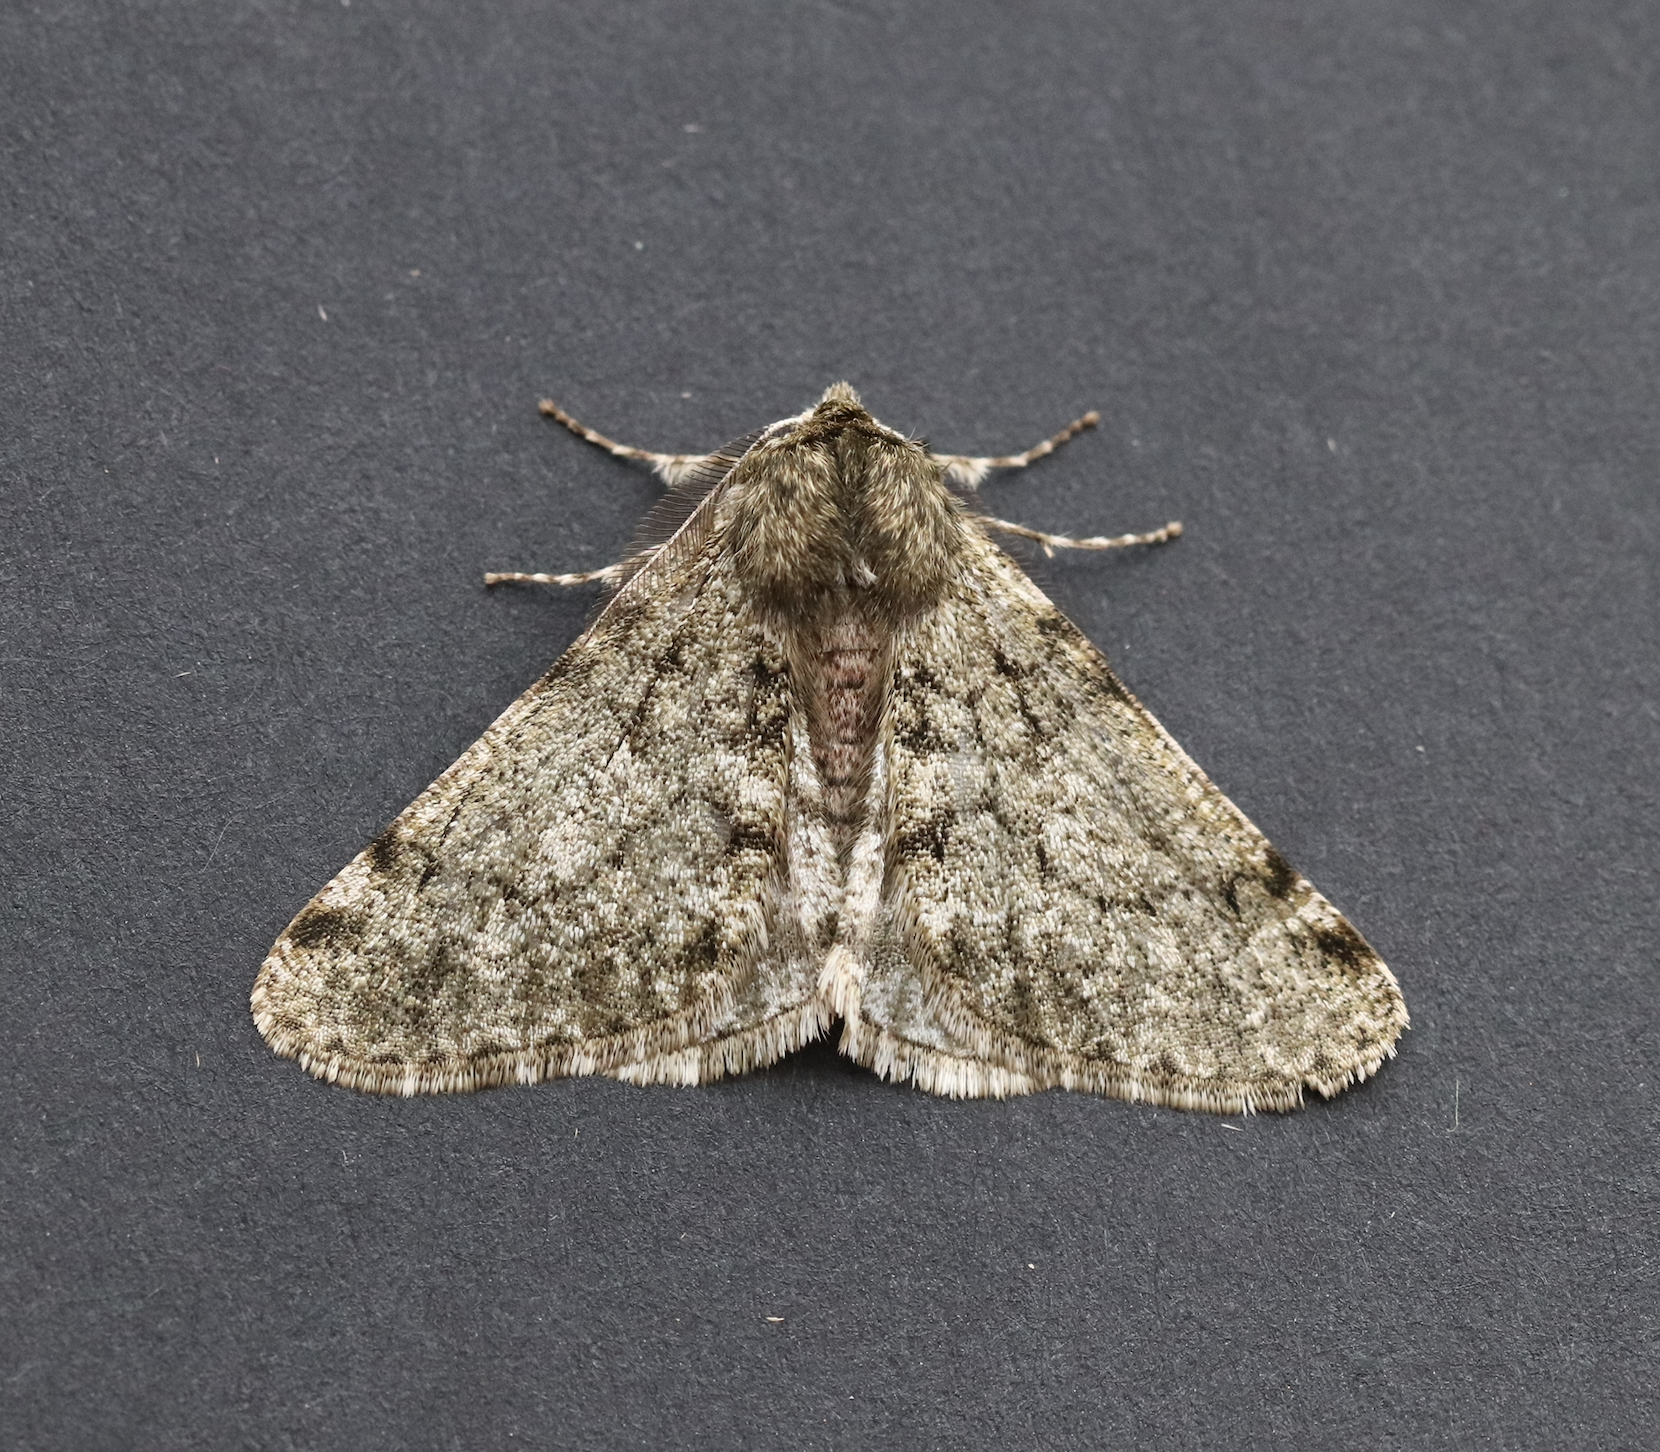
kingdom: Animalia
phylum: Arthropoda
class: Insecta
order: Lepidoptera
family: Geometridae
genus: Phigalia
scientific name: Phigalia pilosaria
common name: Pale brindled beauty
